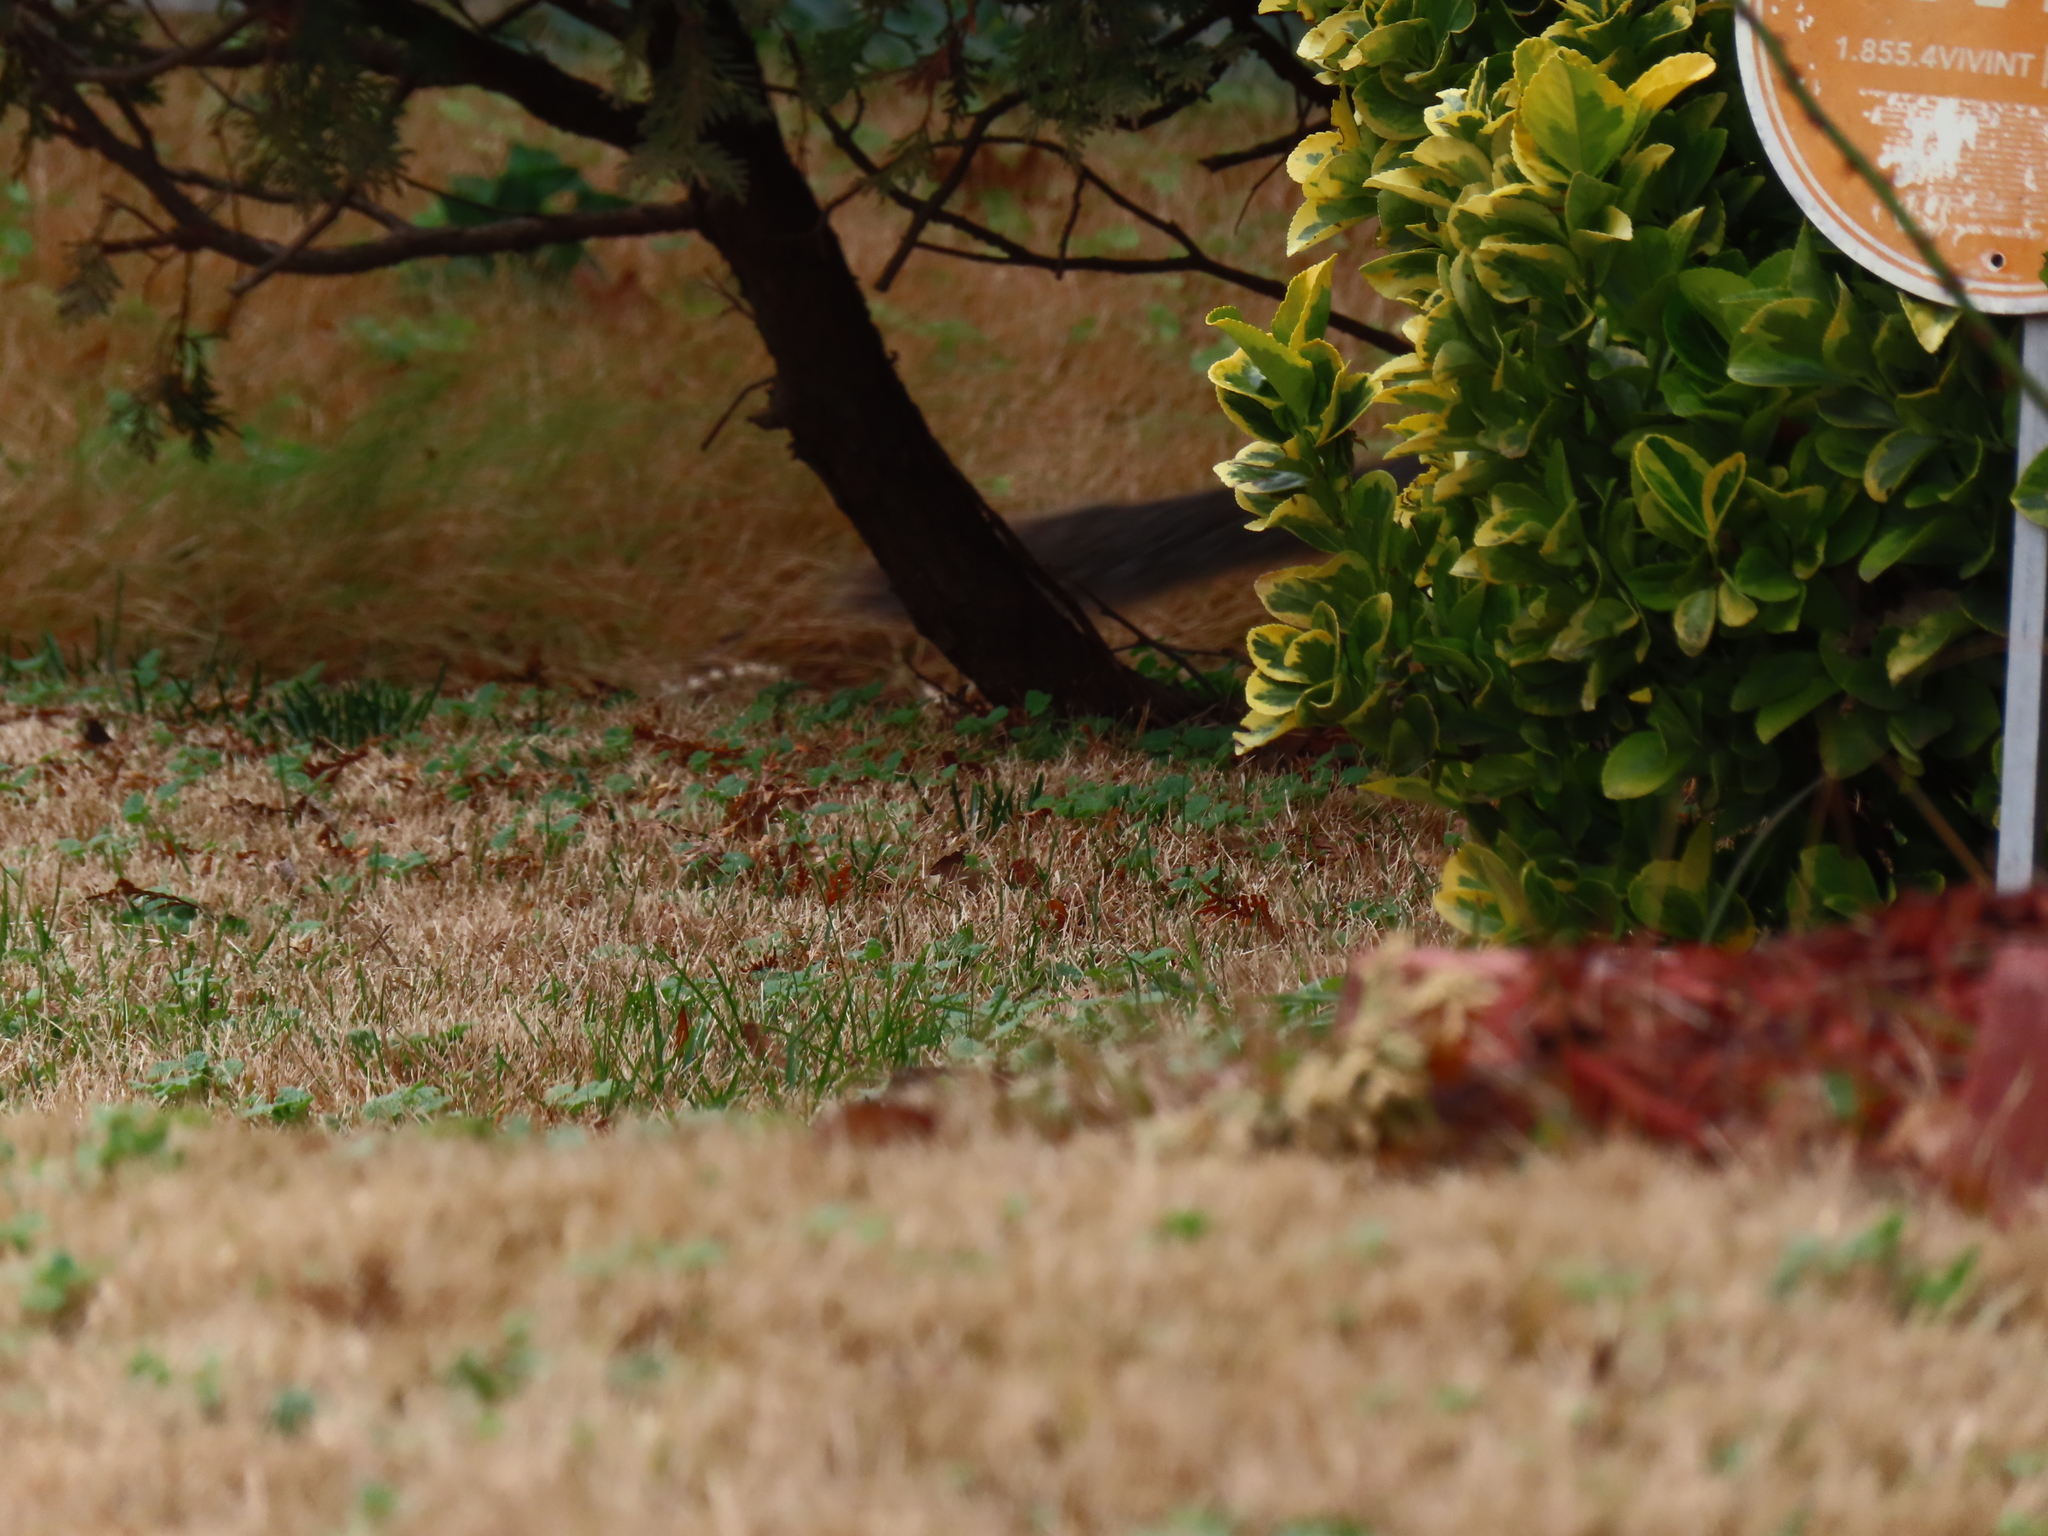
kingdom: Animalia
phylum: Chordata
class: Mammalia
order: Rodentia
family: Sciuridae
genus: Sciurus
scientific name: Sciurus carolinensis
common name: Eastern gray squirrel
